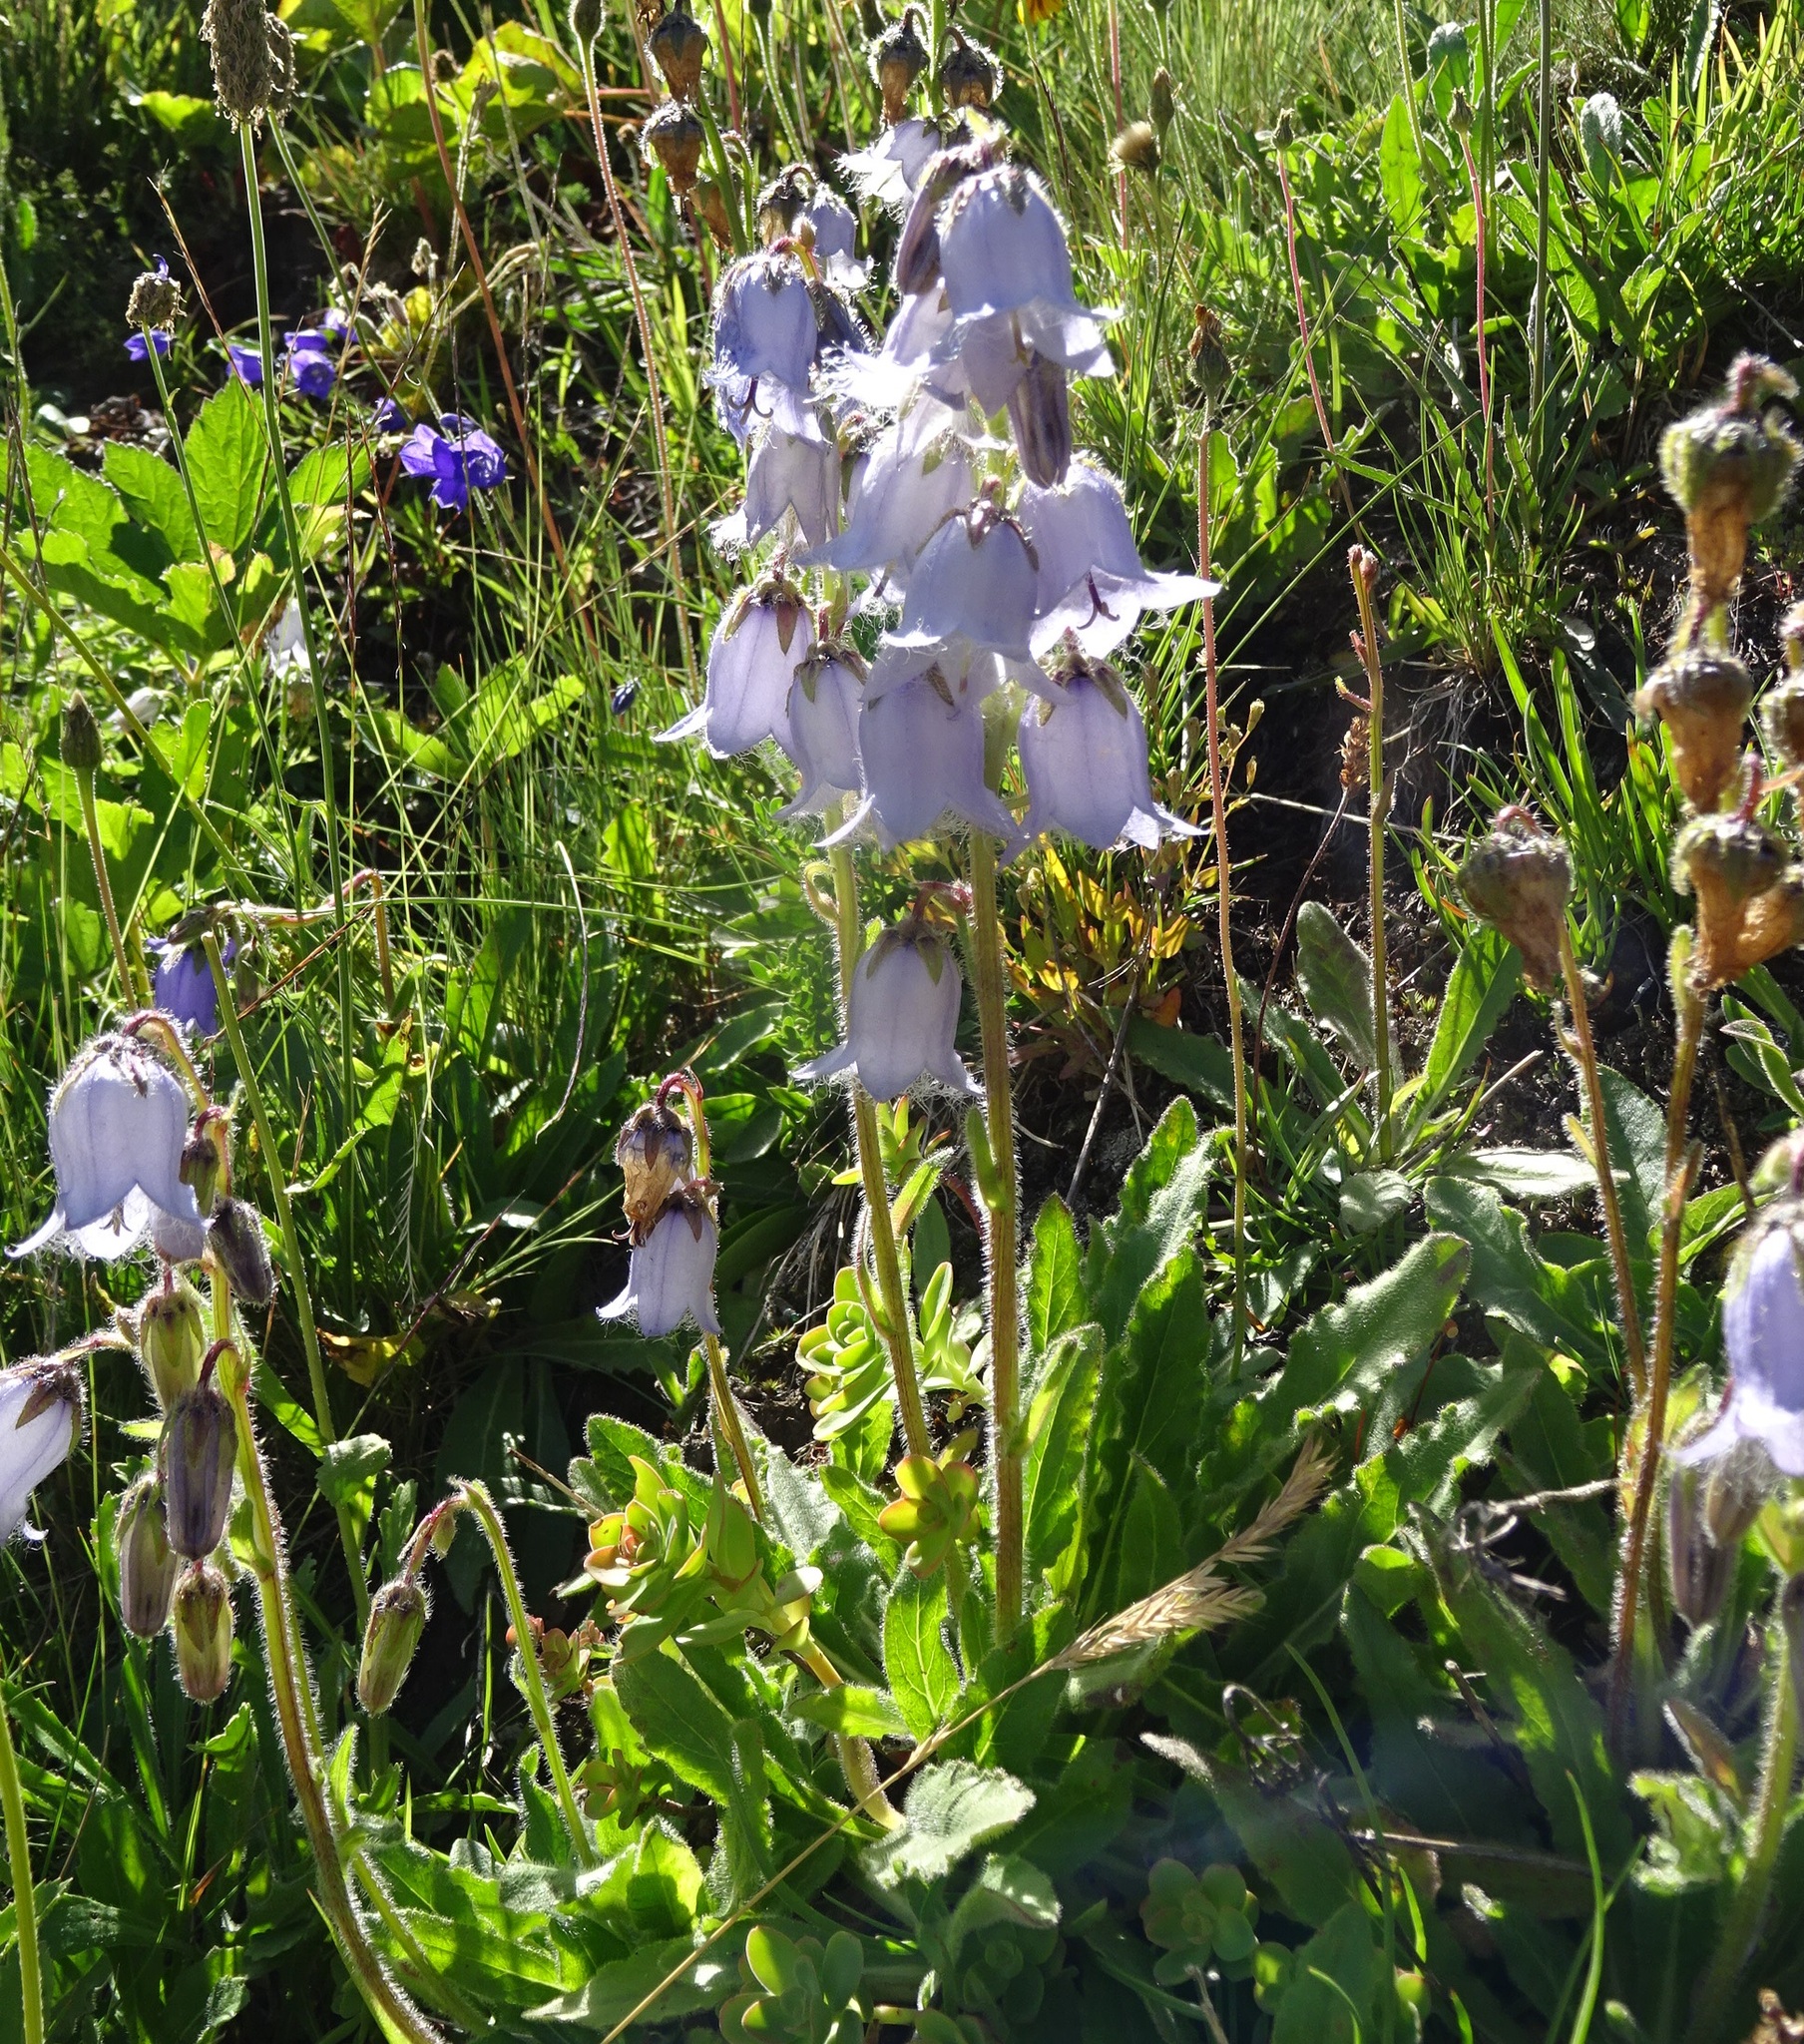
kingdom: Plantae
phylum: Tracheophyta
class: Magnoliopsida
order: Asterales
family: Campanulaceae
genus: Campanula
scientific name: Campanula barbata
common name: Bearded bellflower
